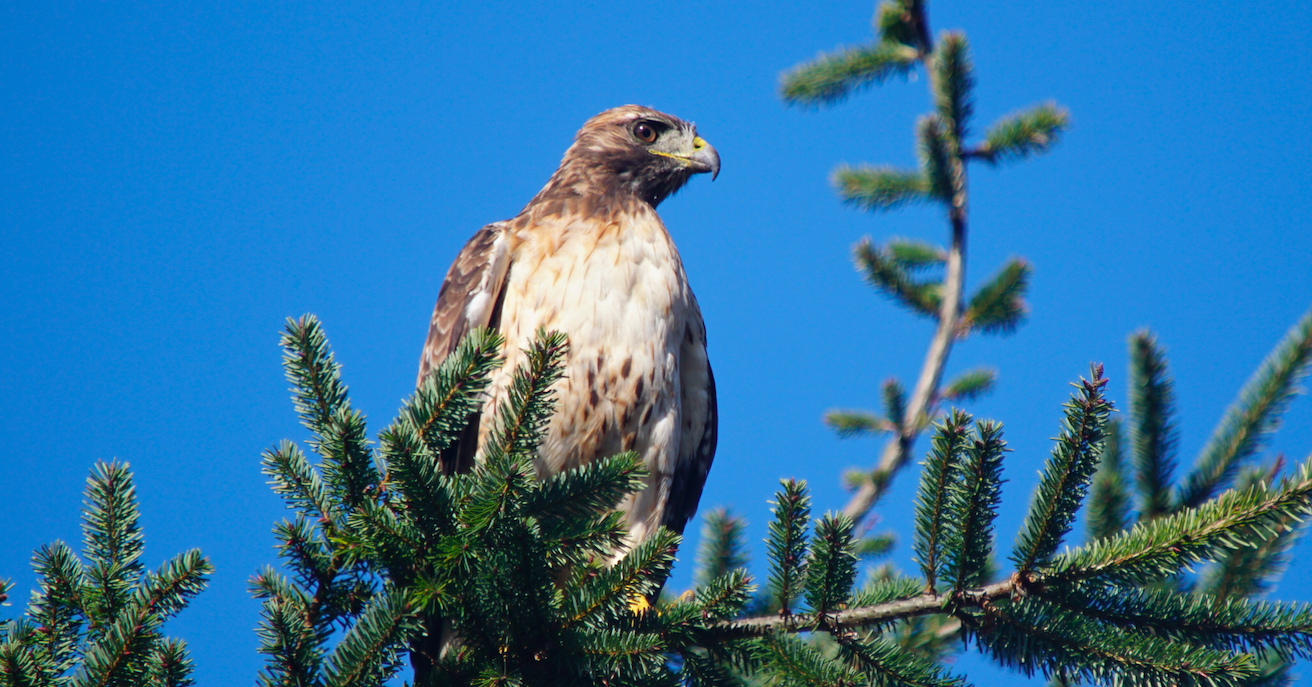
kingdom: Animalia
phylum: Chordata
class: Aves
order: Accipitriformes
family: Accipitridae
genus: Buteo
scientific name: Buteo jamaicensis
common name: Red-tailed hawk
